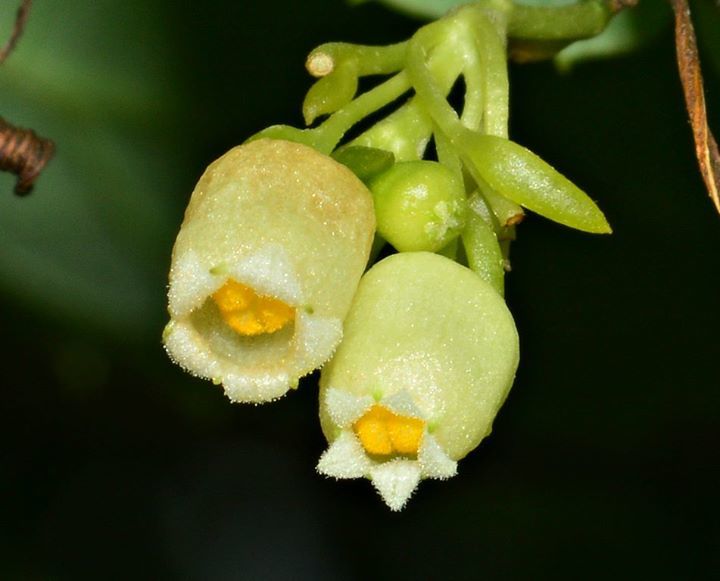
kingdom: Plantae
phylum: Tracheophyta
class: Magnoliopsida
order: Cucurbitales
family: Cucurbitaceae
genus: Solena
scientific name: Solena amplexicaulis
